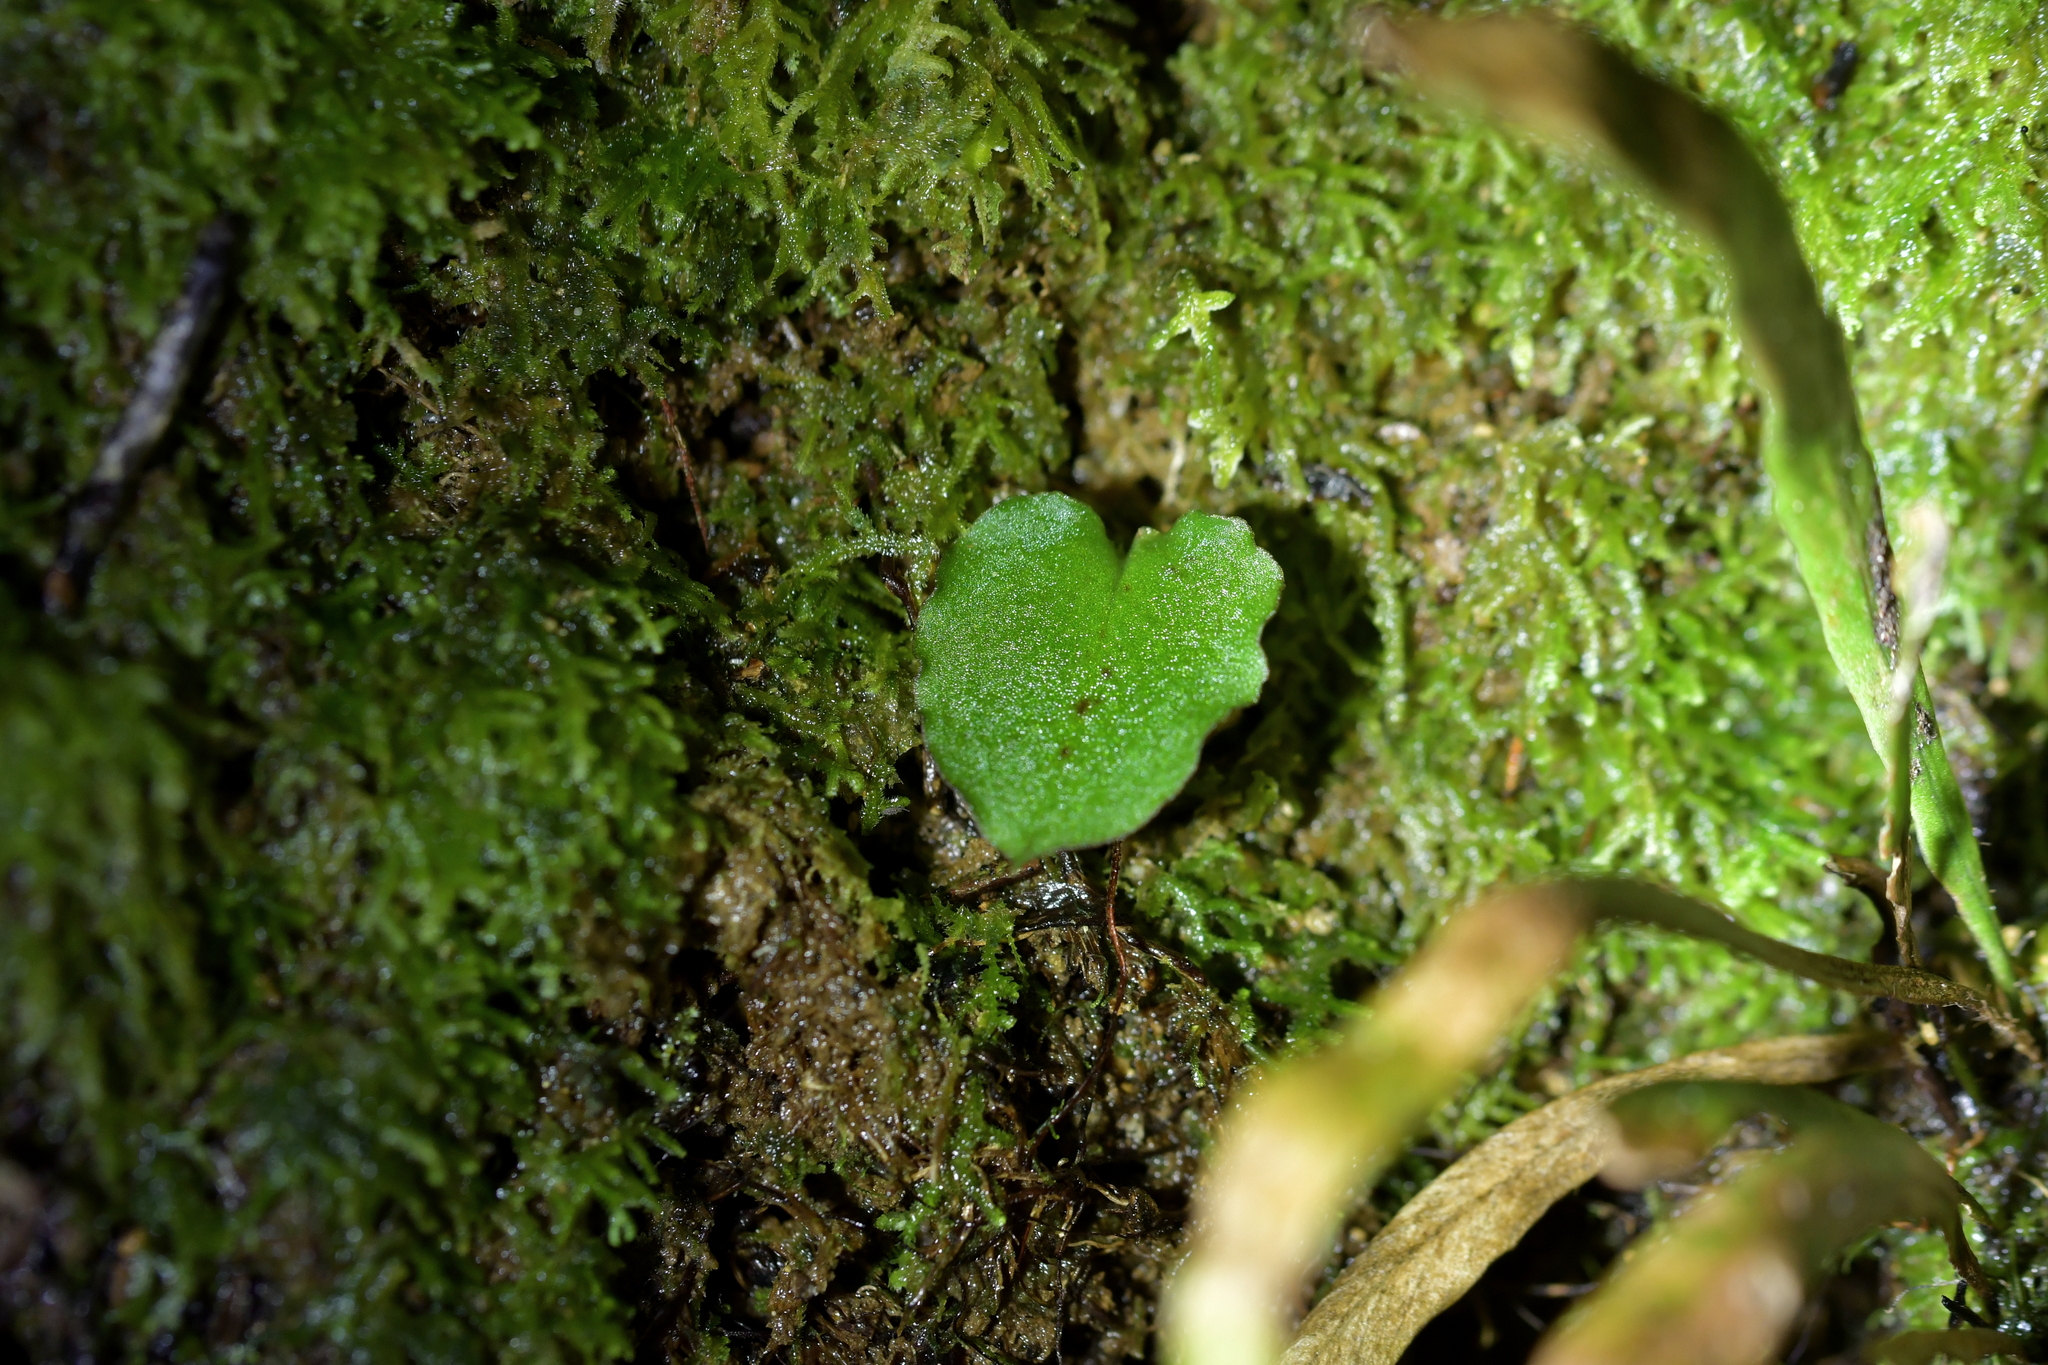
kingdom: Plantae
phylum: Tracheophyta
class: Liliopsida
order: Asparagales
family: Orchidaceae
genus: Corybas
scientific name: Corybas oblongus
